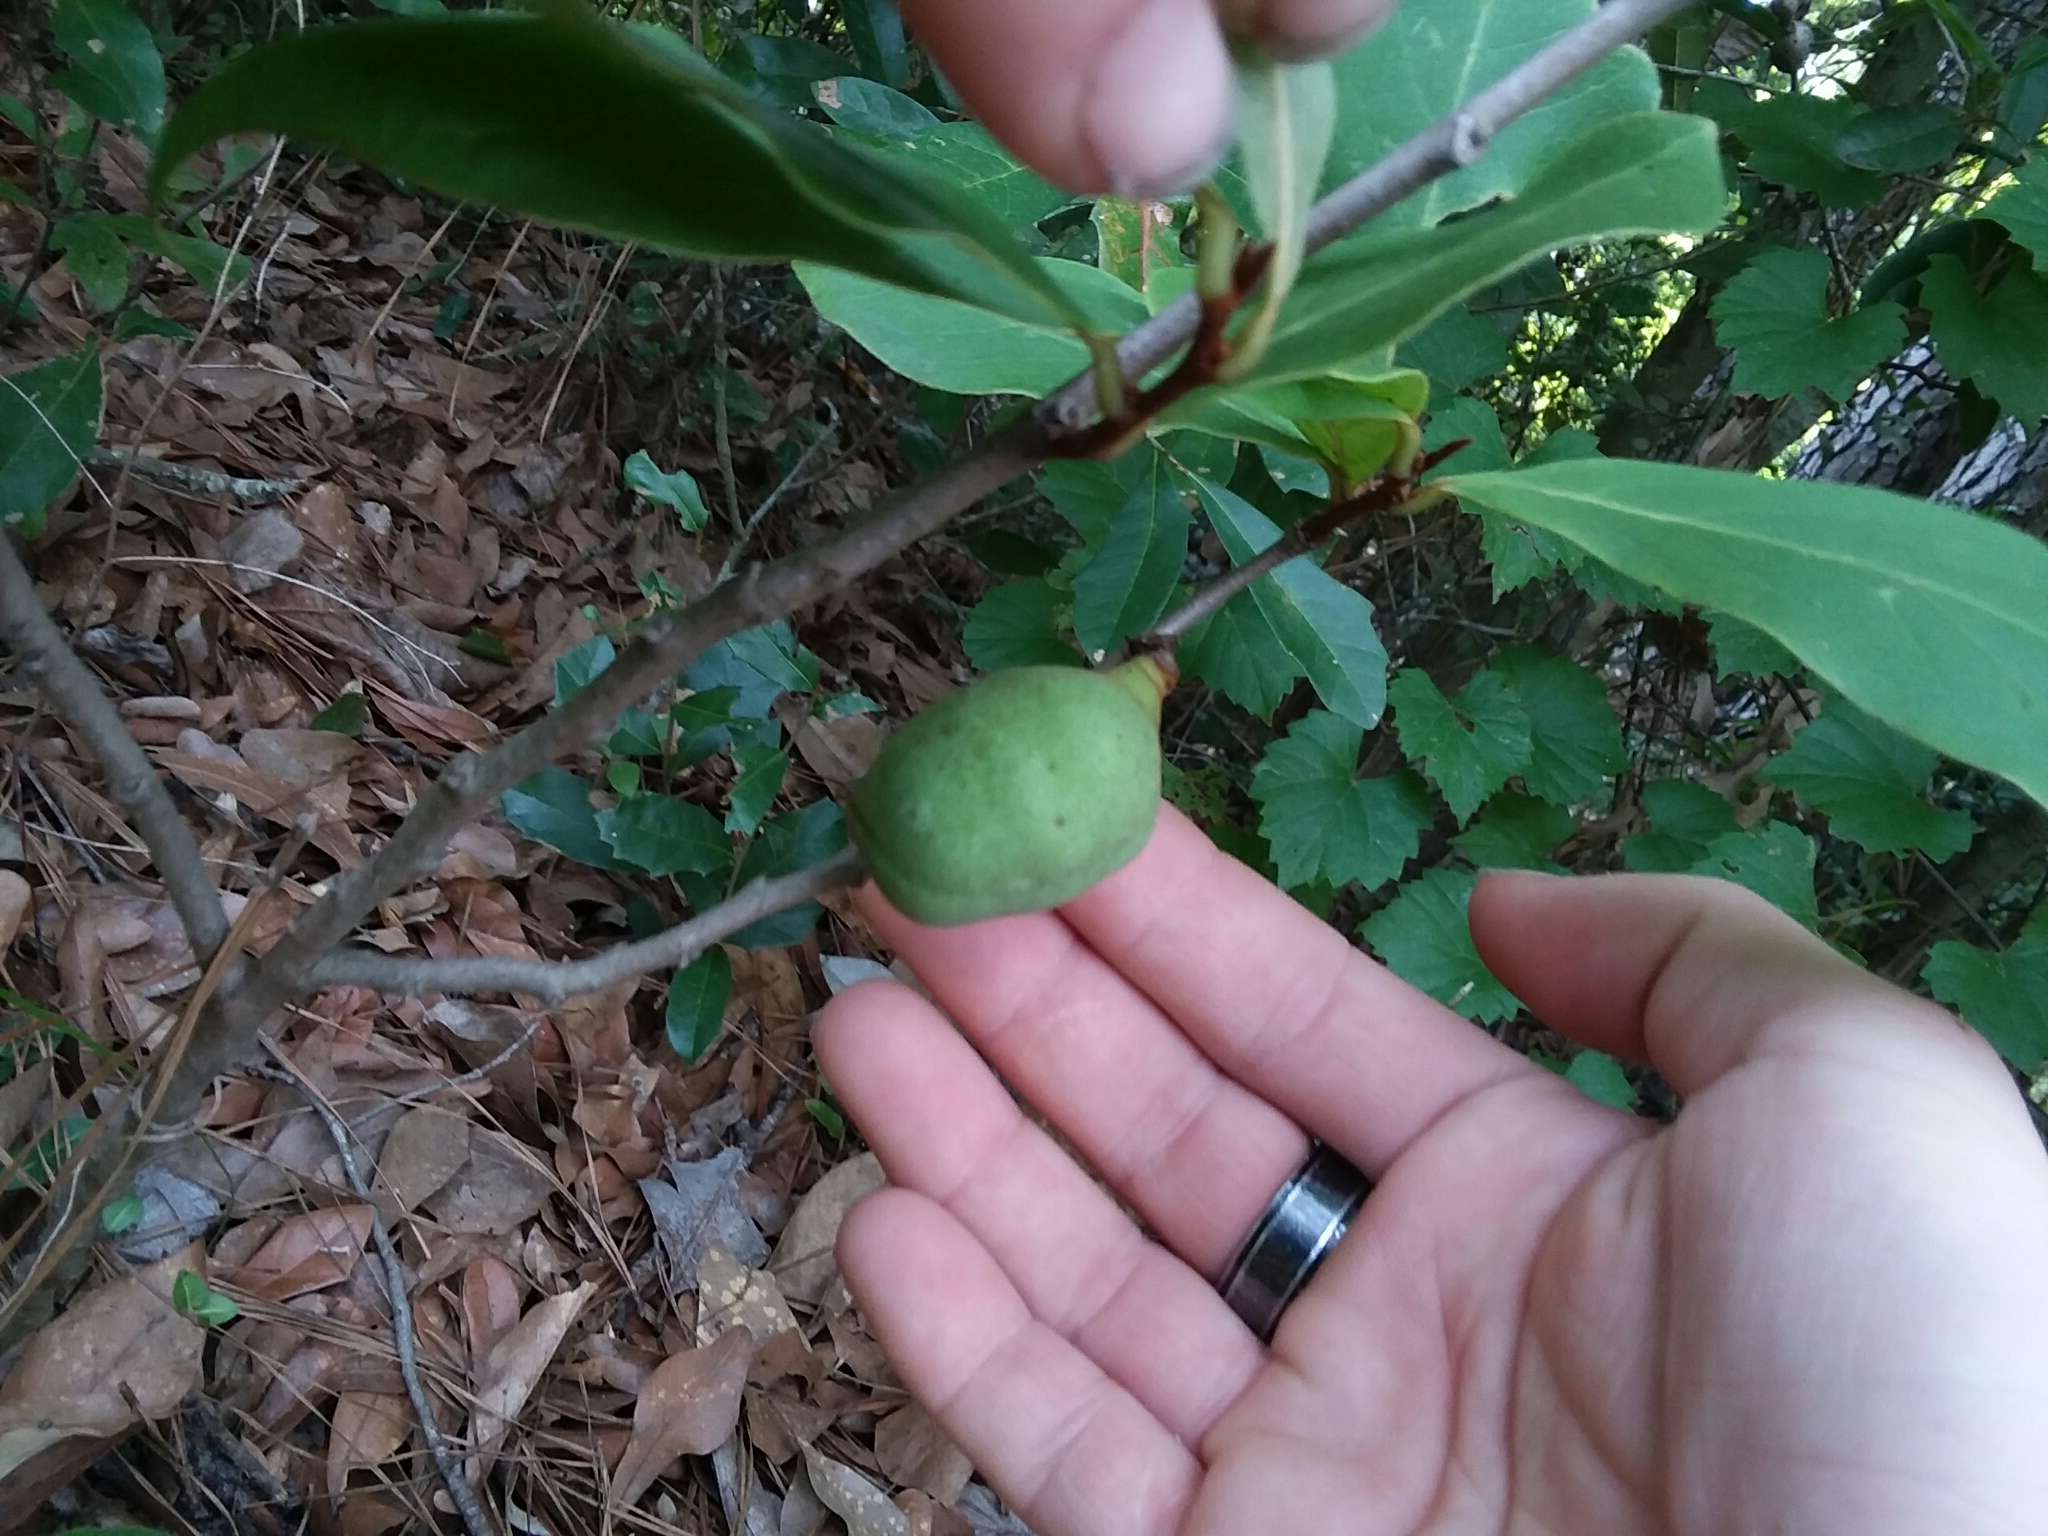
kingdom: Plantae
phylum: Tracheophyta
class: Magnoliopsida
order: Magnoliales
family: Annonaceae
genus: Asimina
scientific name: Asimina parviflora
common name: Dwarf pawpaw
